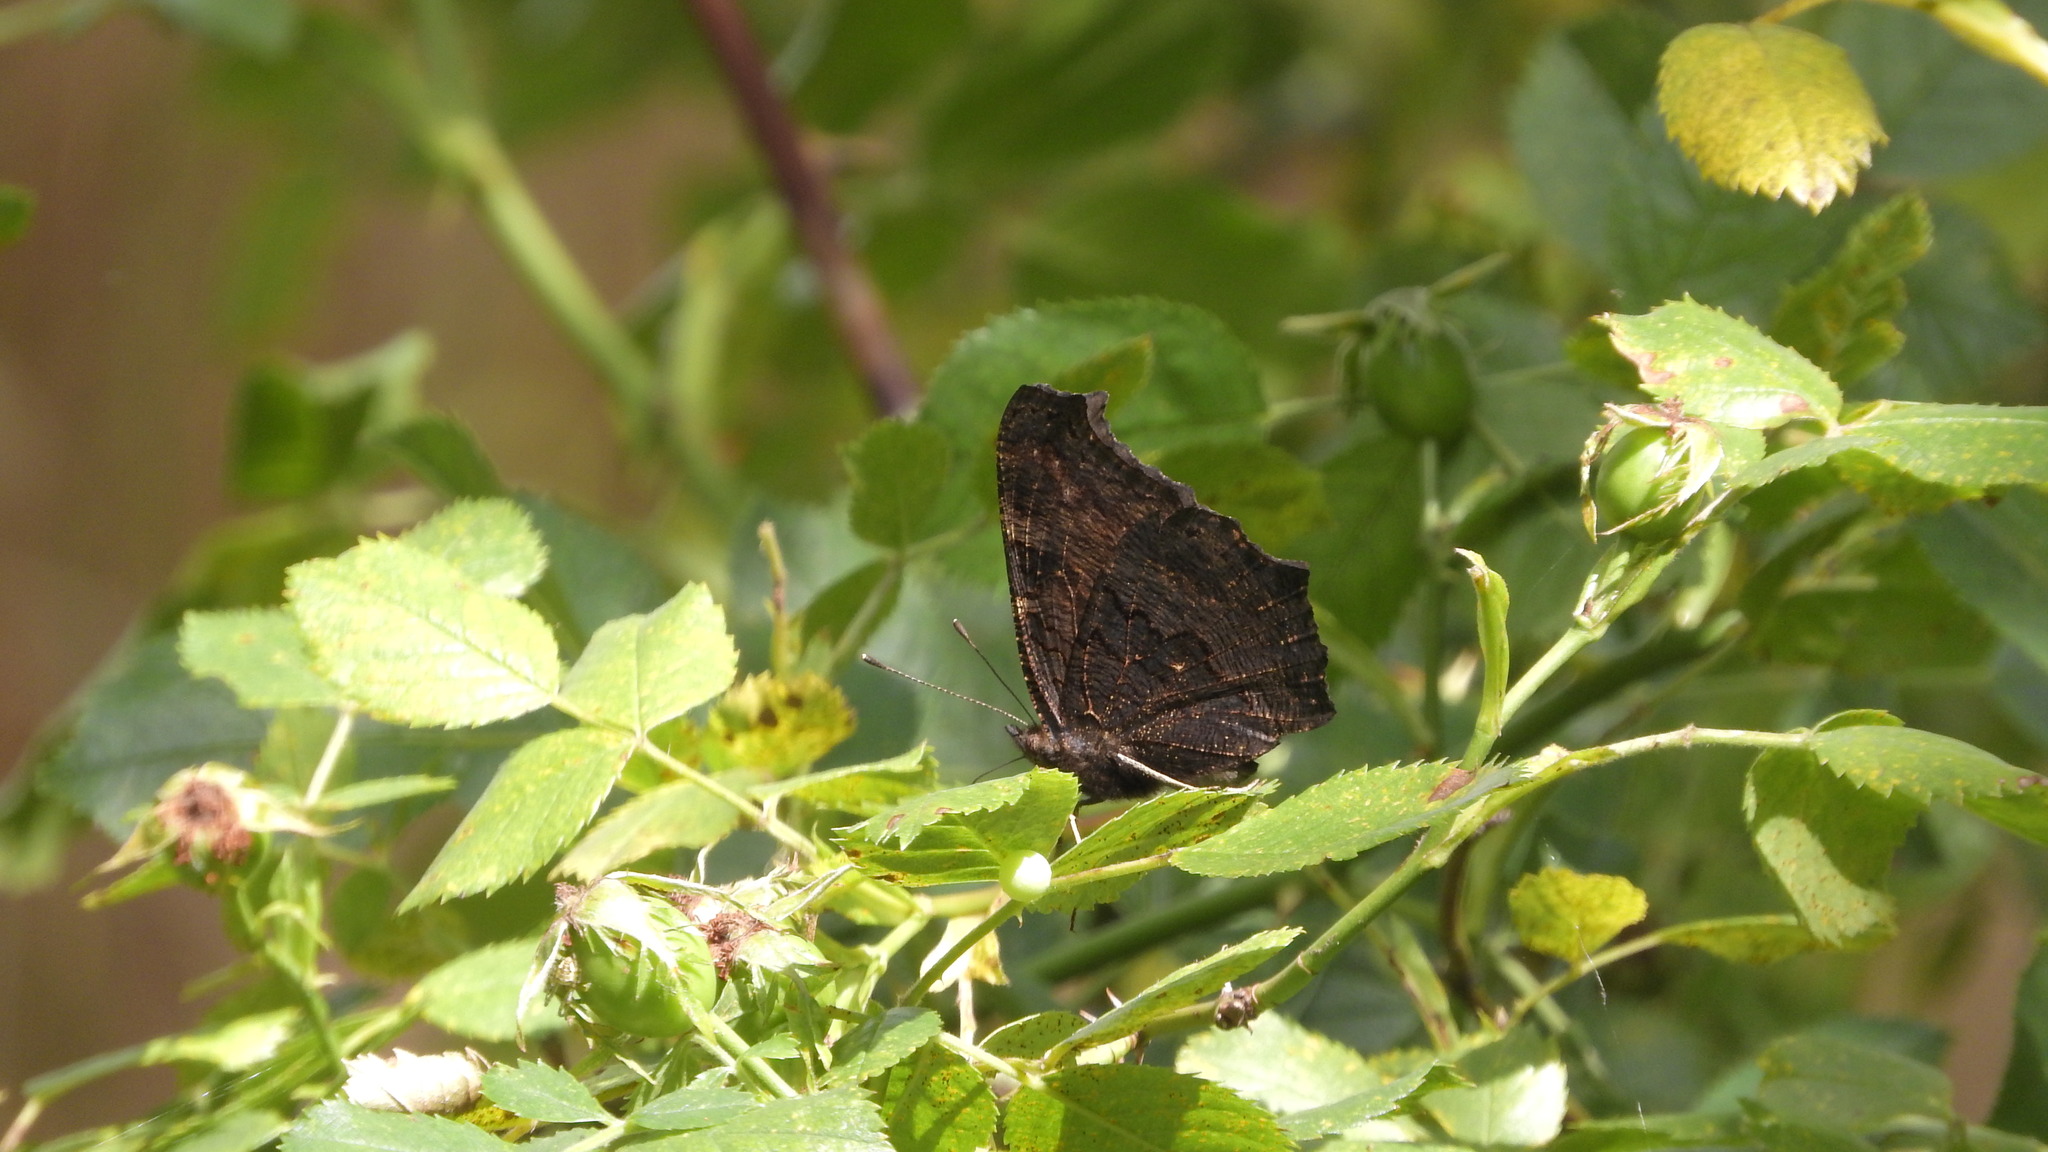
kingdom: Animalia
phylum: Arthropoda
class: Insecta
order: Lepidoptera
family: Nymphalidae
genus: Aglais
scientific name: Aglais io
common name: Peacock
